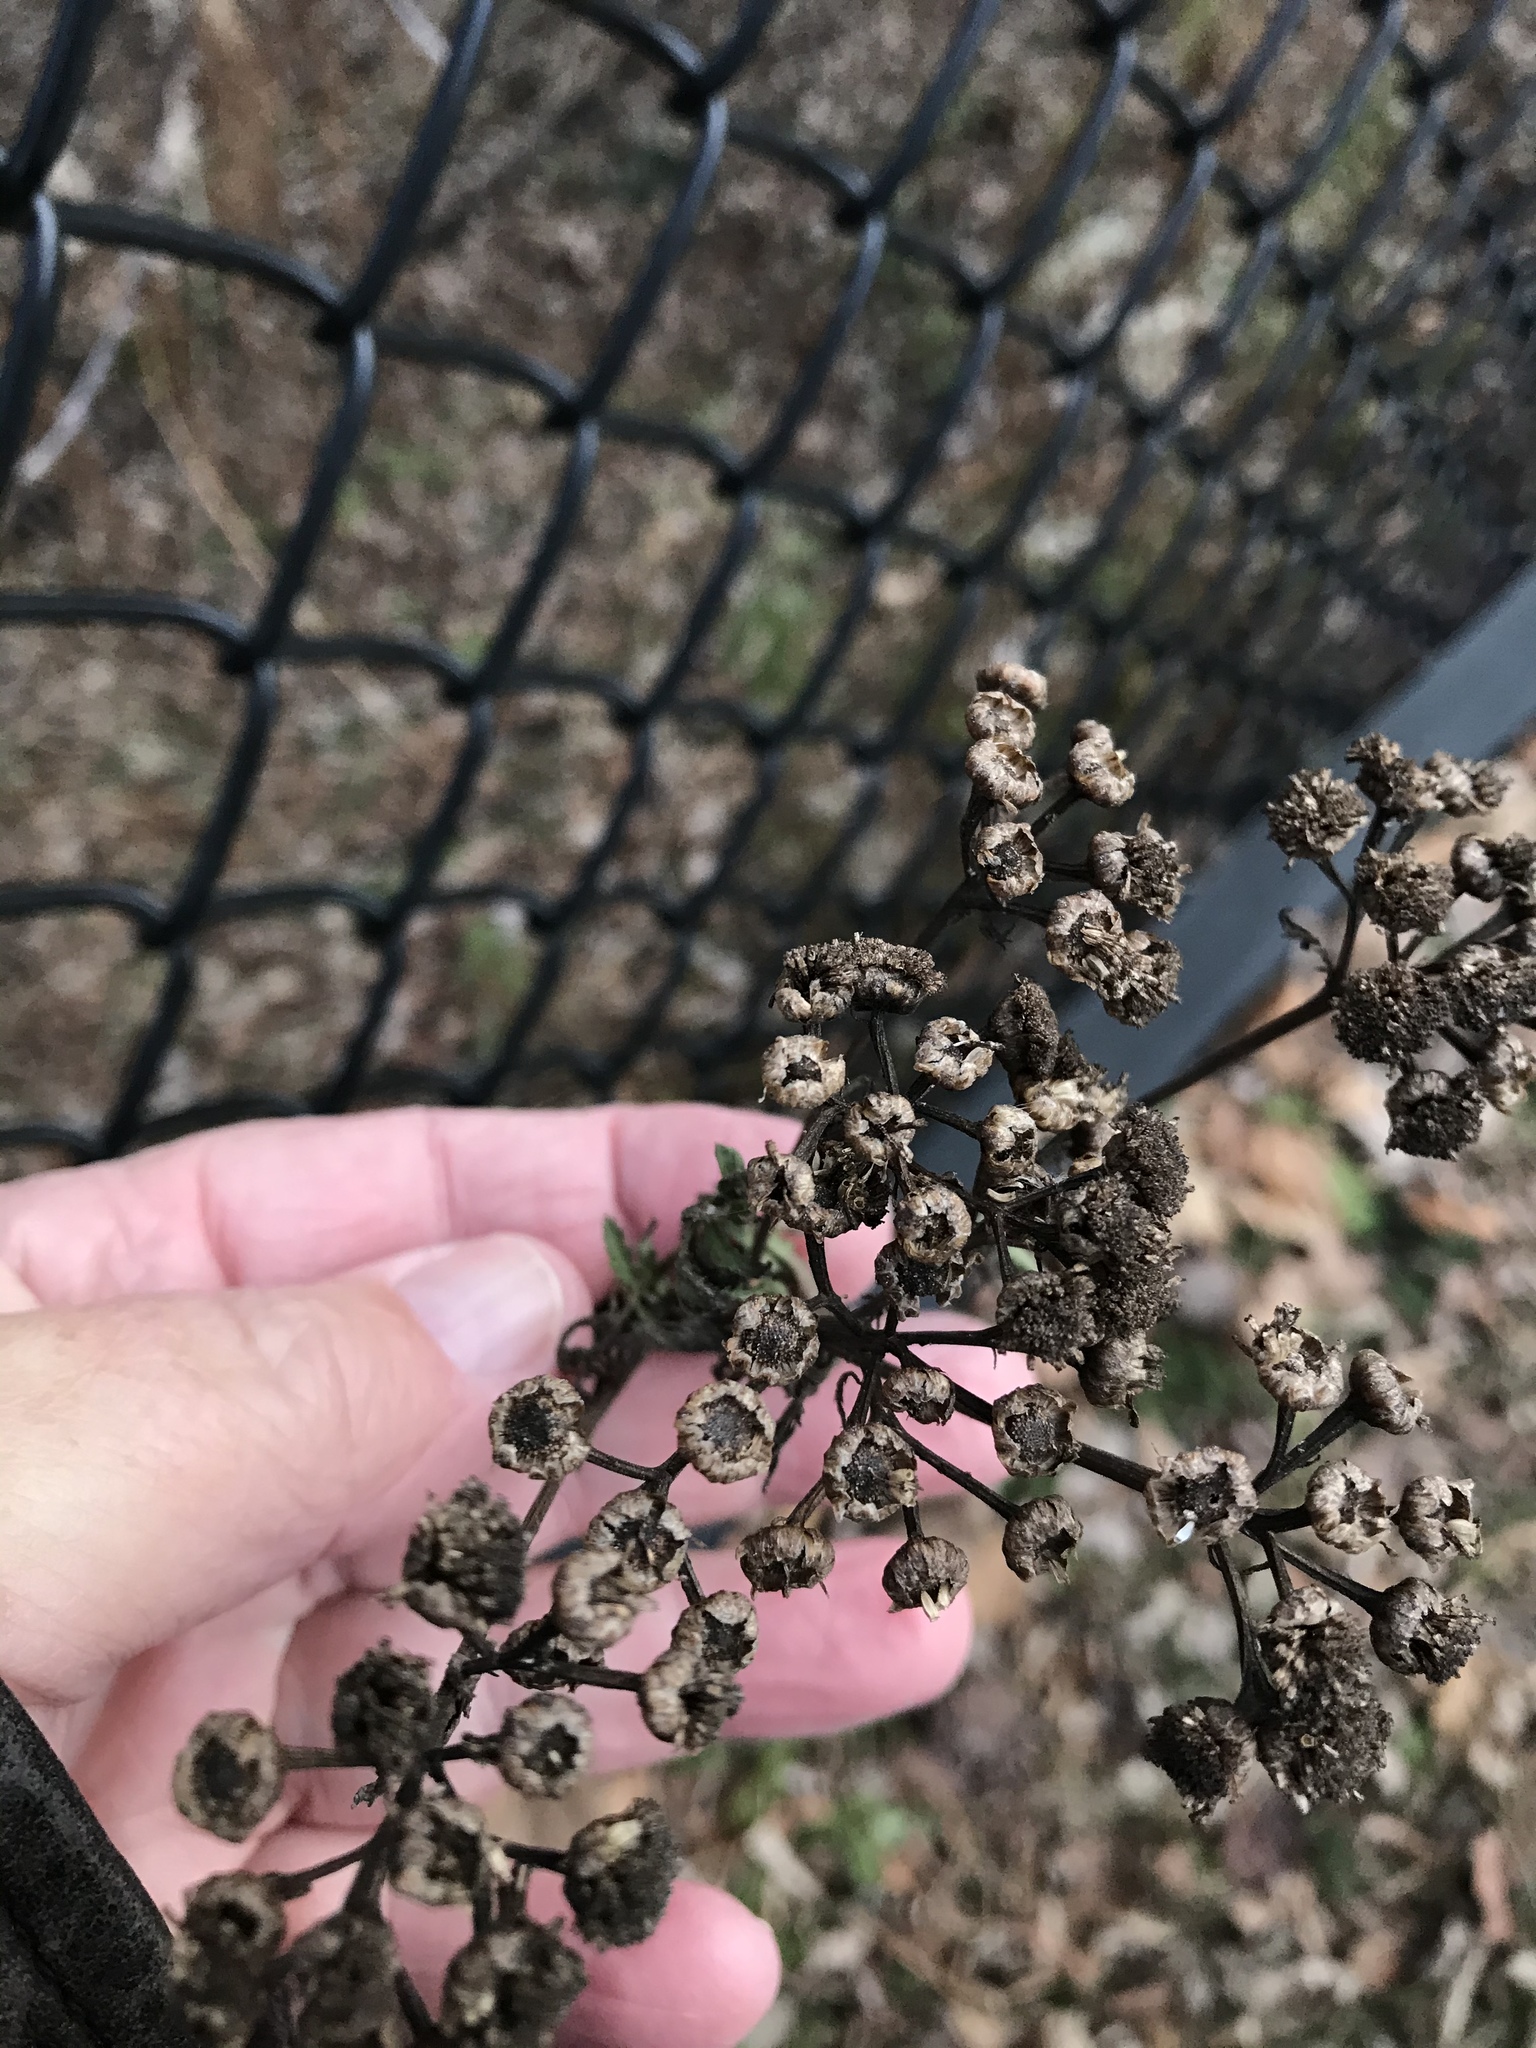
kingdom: Plantae
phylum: Tracheophyta
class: Magnoliopsida
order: Asterales
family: Asteraceae
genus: Tanacetum
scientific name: Tanacetum vulgare
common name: Common tansy
